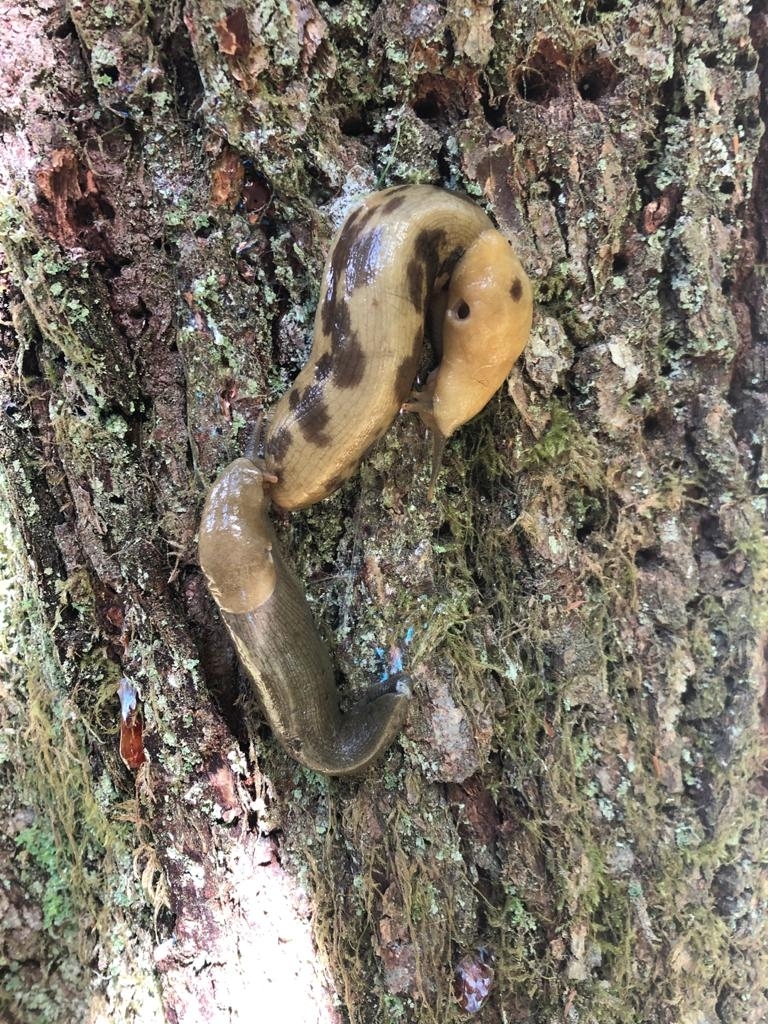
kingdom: Animalia
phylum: Mollusca
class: Gastropoda
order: Stylommatophora
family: Ariolimacidae
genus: Ariolimax
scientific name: Ariolimax columbianus
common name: Pacific banana slug
